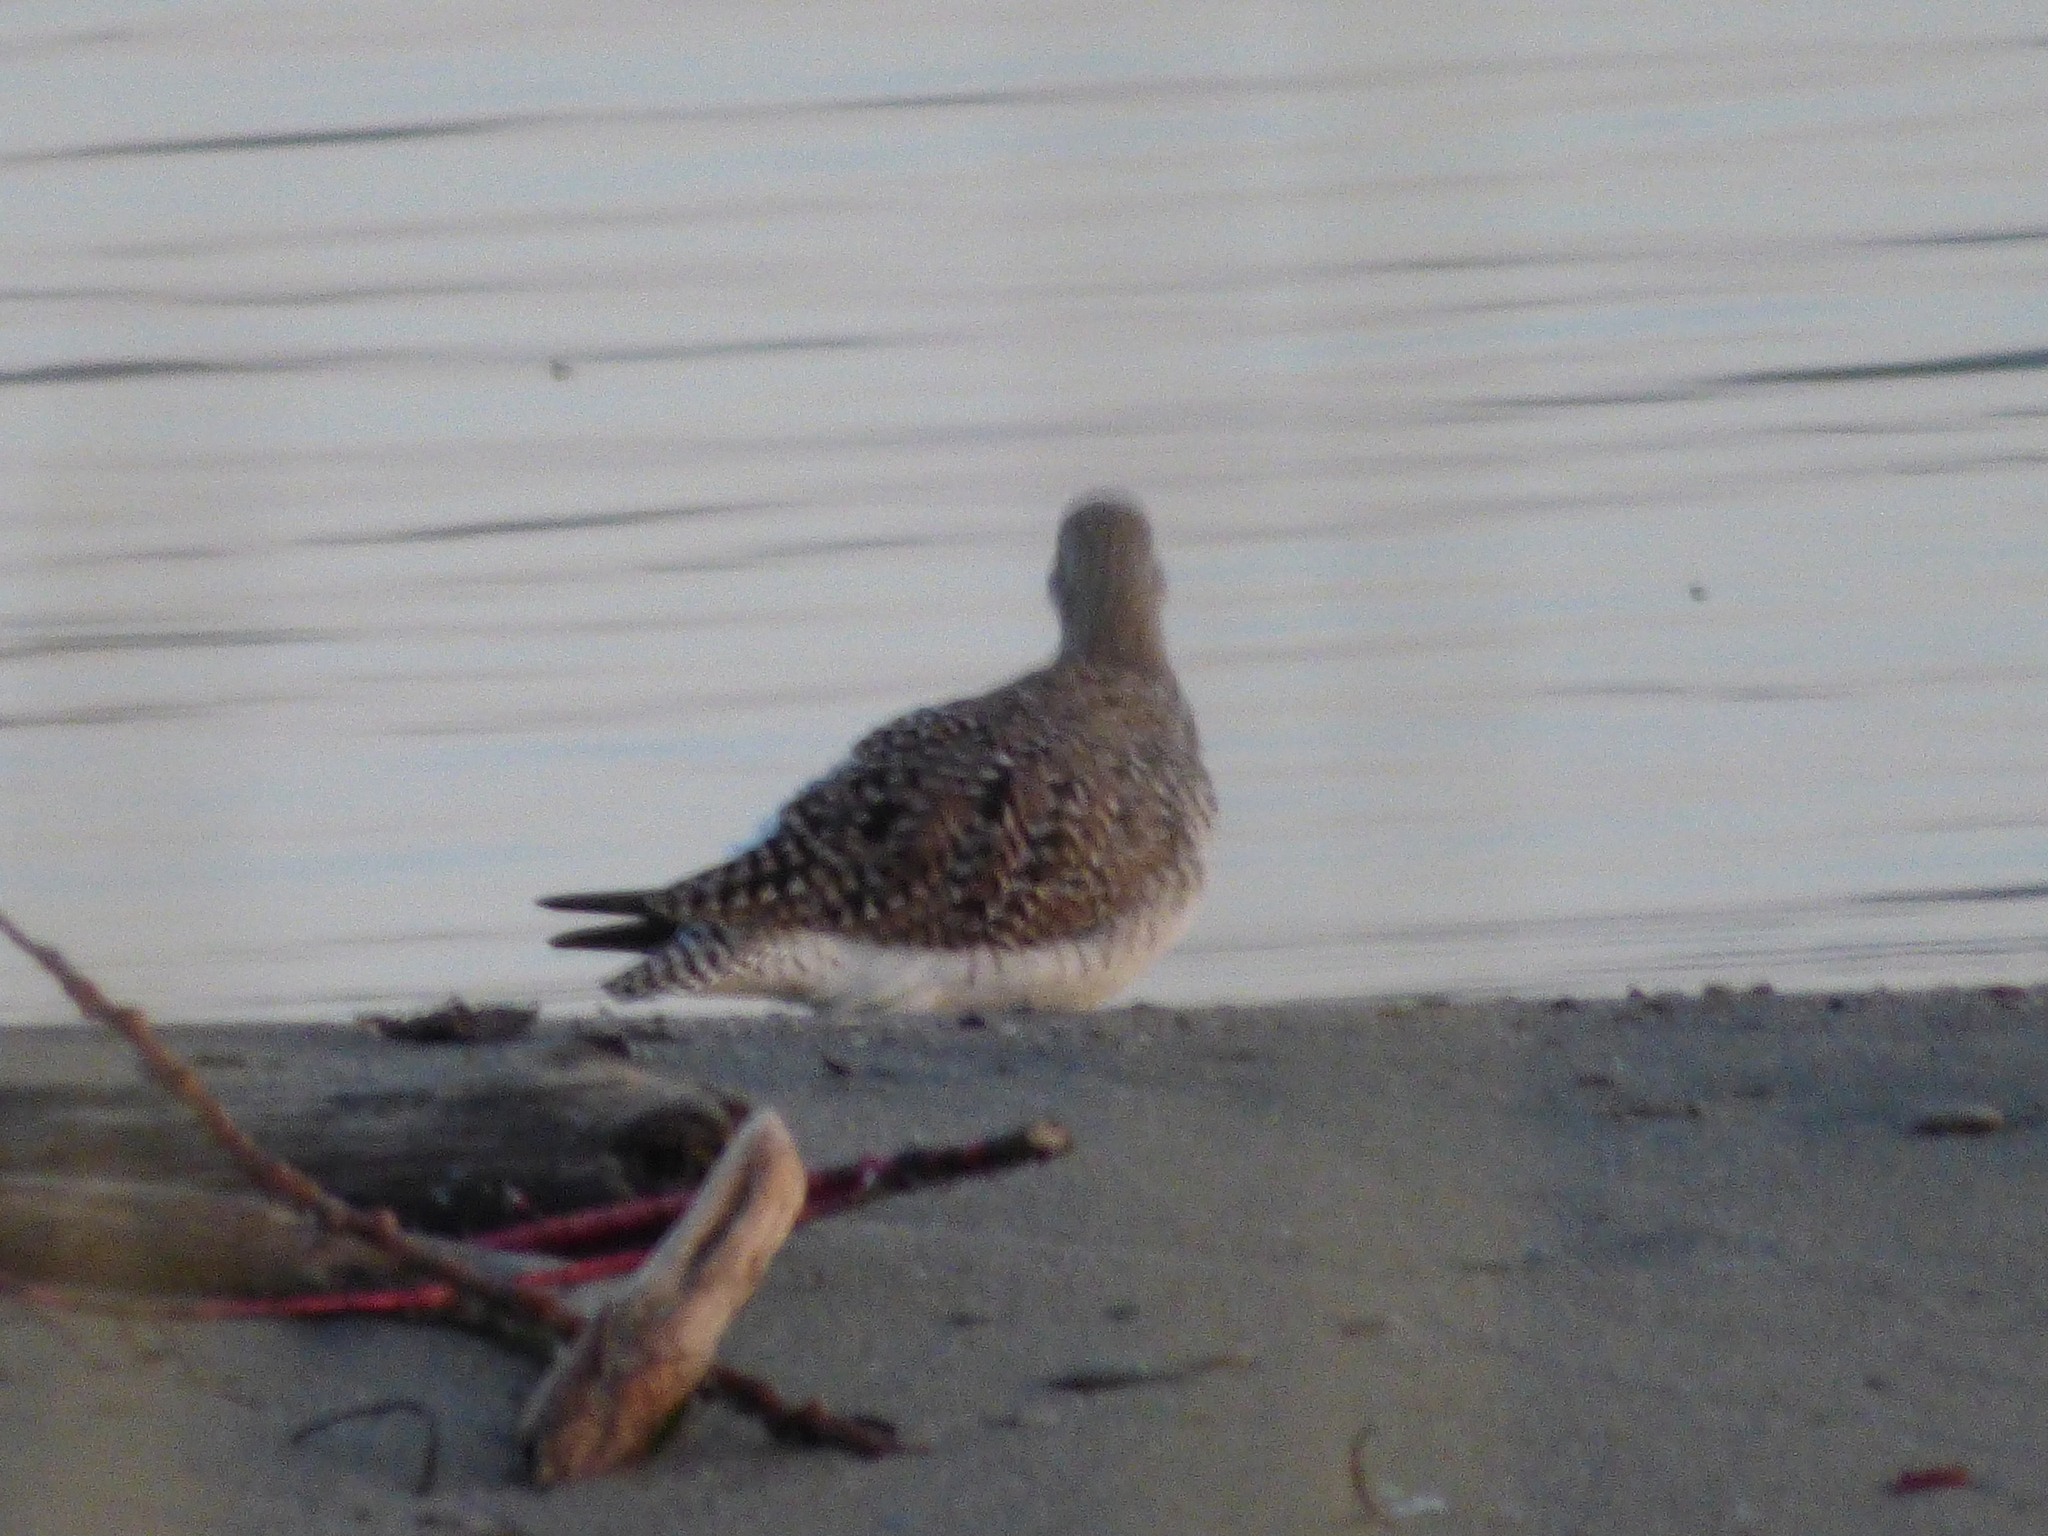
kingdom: Animalia
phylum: Chordata
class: Aves
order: Charadriiformes
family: Scolopacidae
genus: Tringa
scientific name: Tringa
